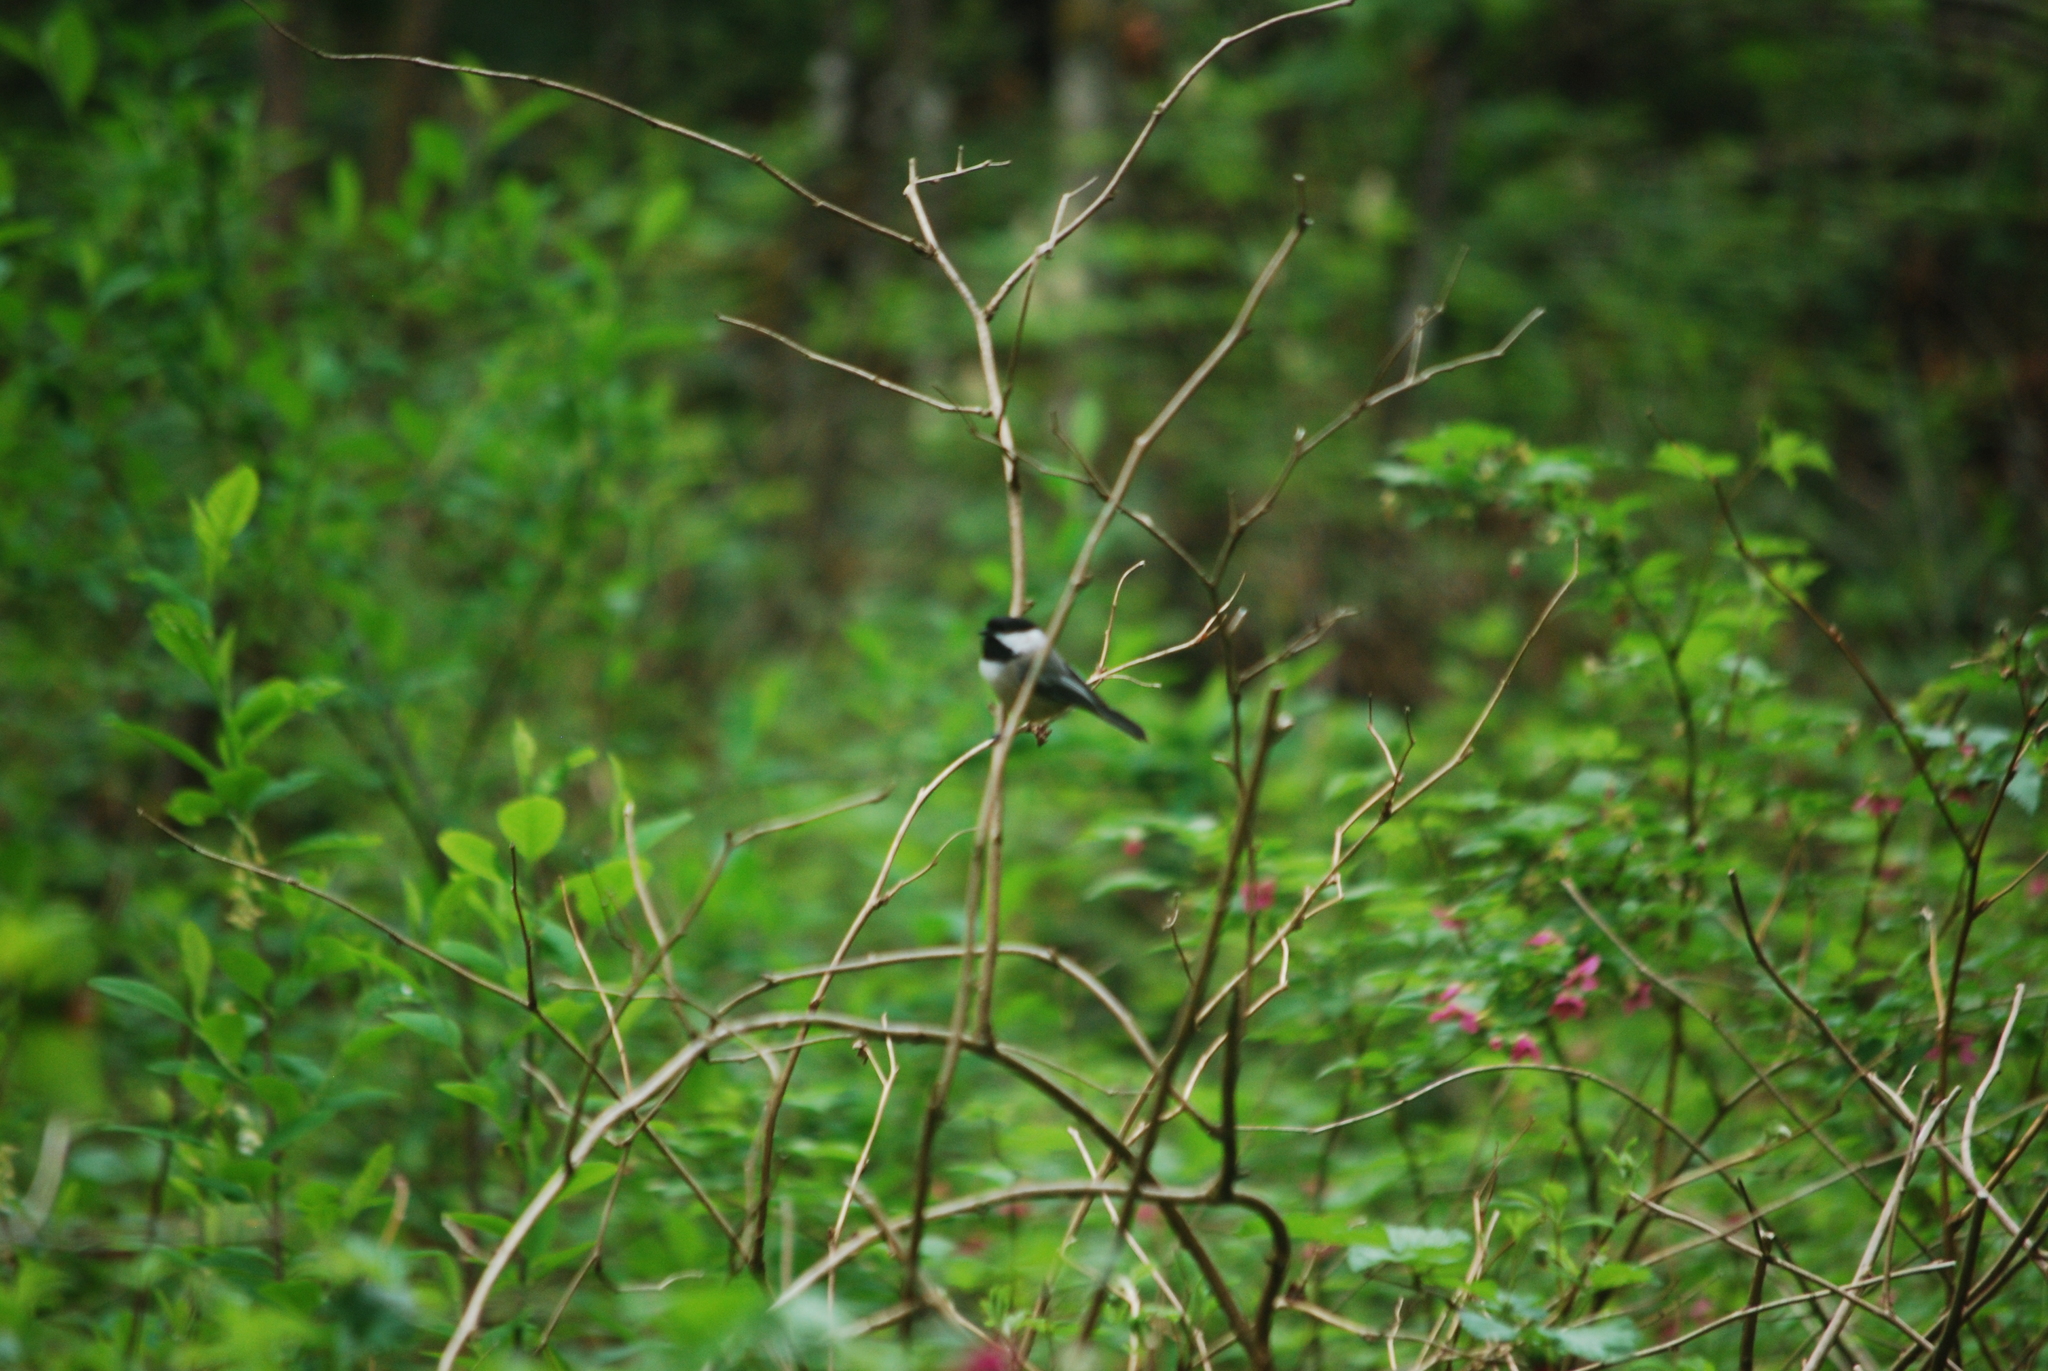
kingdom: Animalia
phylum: Chordata
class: Aves
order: Passeriformes
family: Paridae
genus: Poecile
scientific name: Poecile atricapillus
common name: Black-capped chickadee
